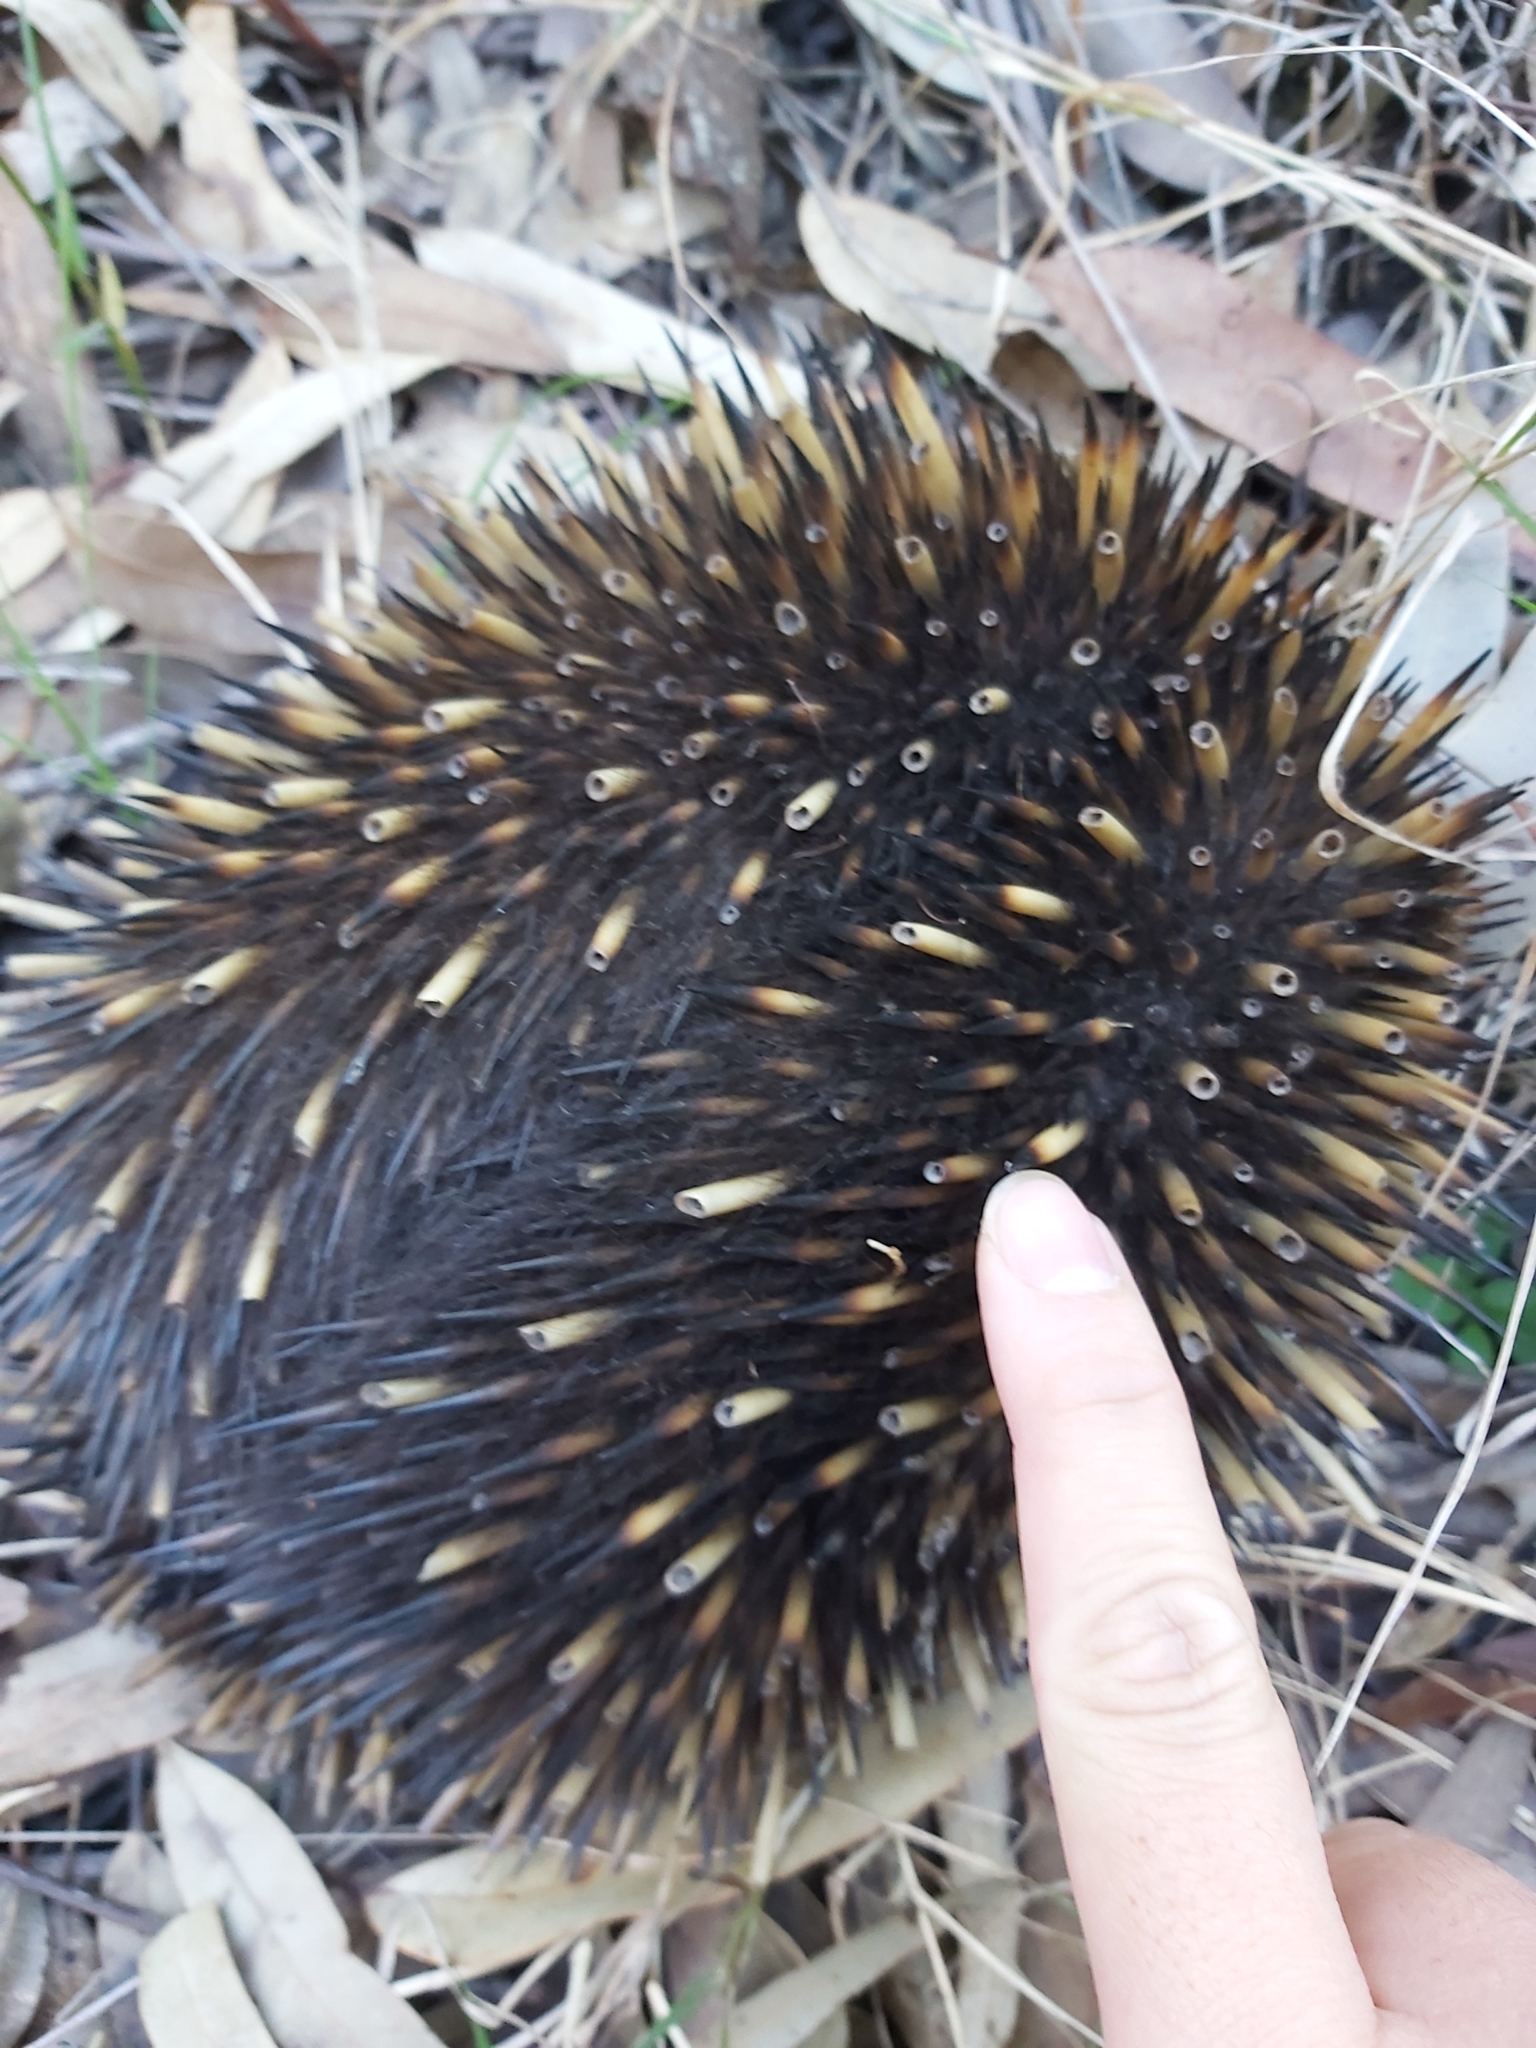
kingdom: Animalia
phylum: Chordata
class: Mammalia
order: Monotremata
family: Tachyglossidae
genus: Tachyglossus
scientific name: Tachyglossus aculeatus
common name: Short-beaked echidna
